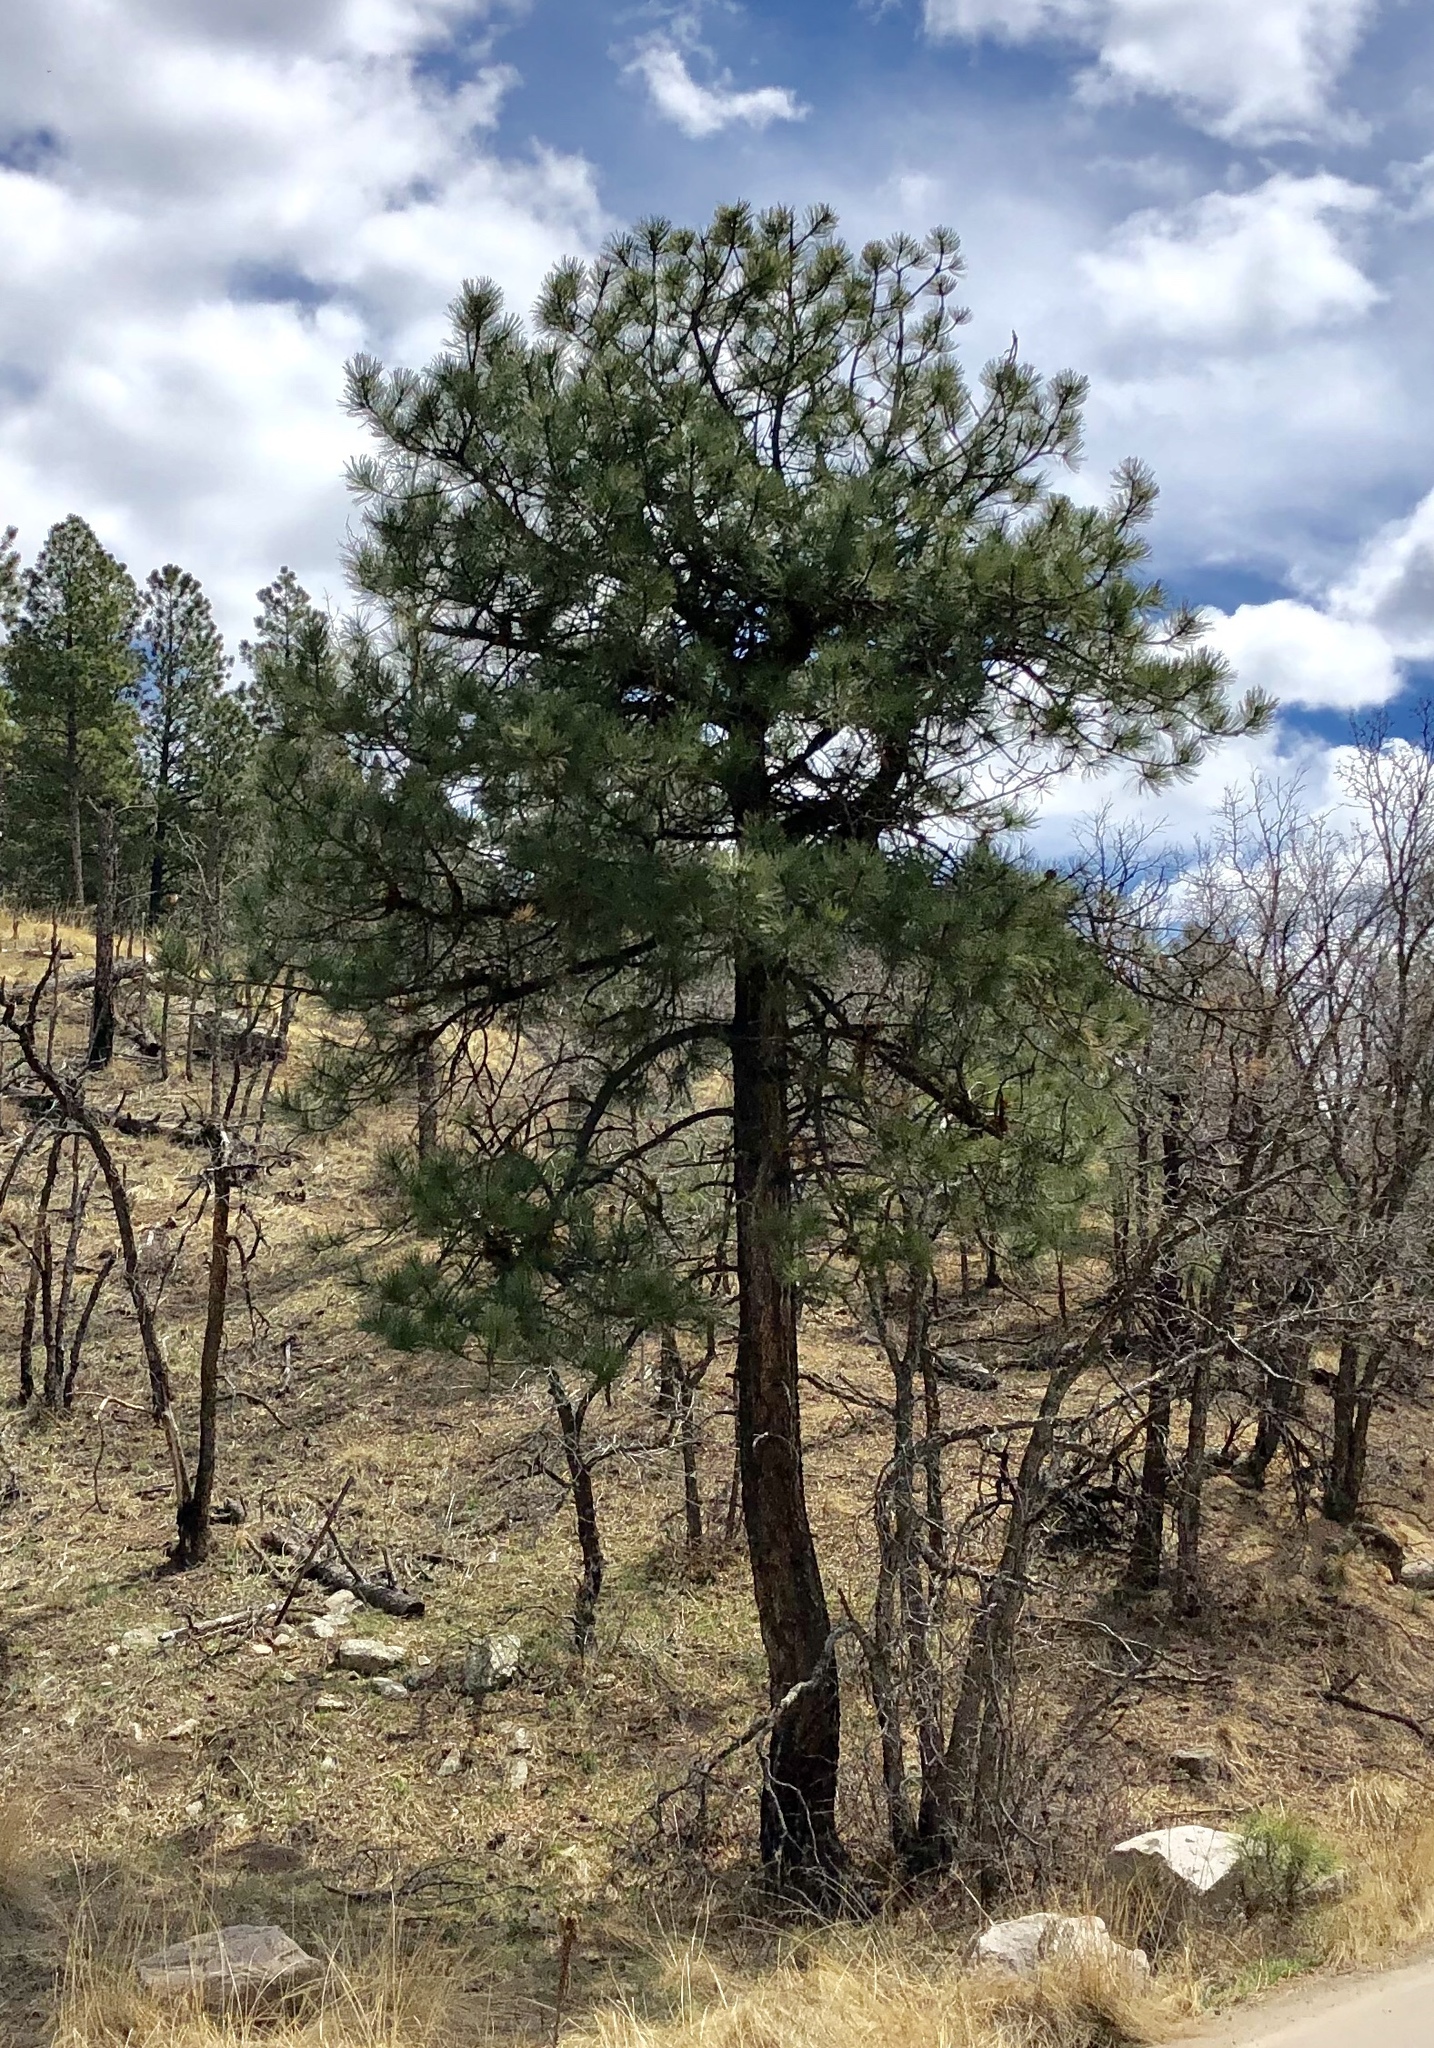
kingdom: Plantae
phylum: Tracheophyta
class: Pinopsida
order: Pinales
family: Pinaceae
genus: Pinus
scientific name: Pinus ponderosa
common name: Western yellow-pine
